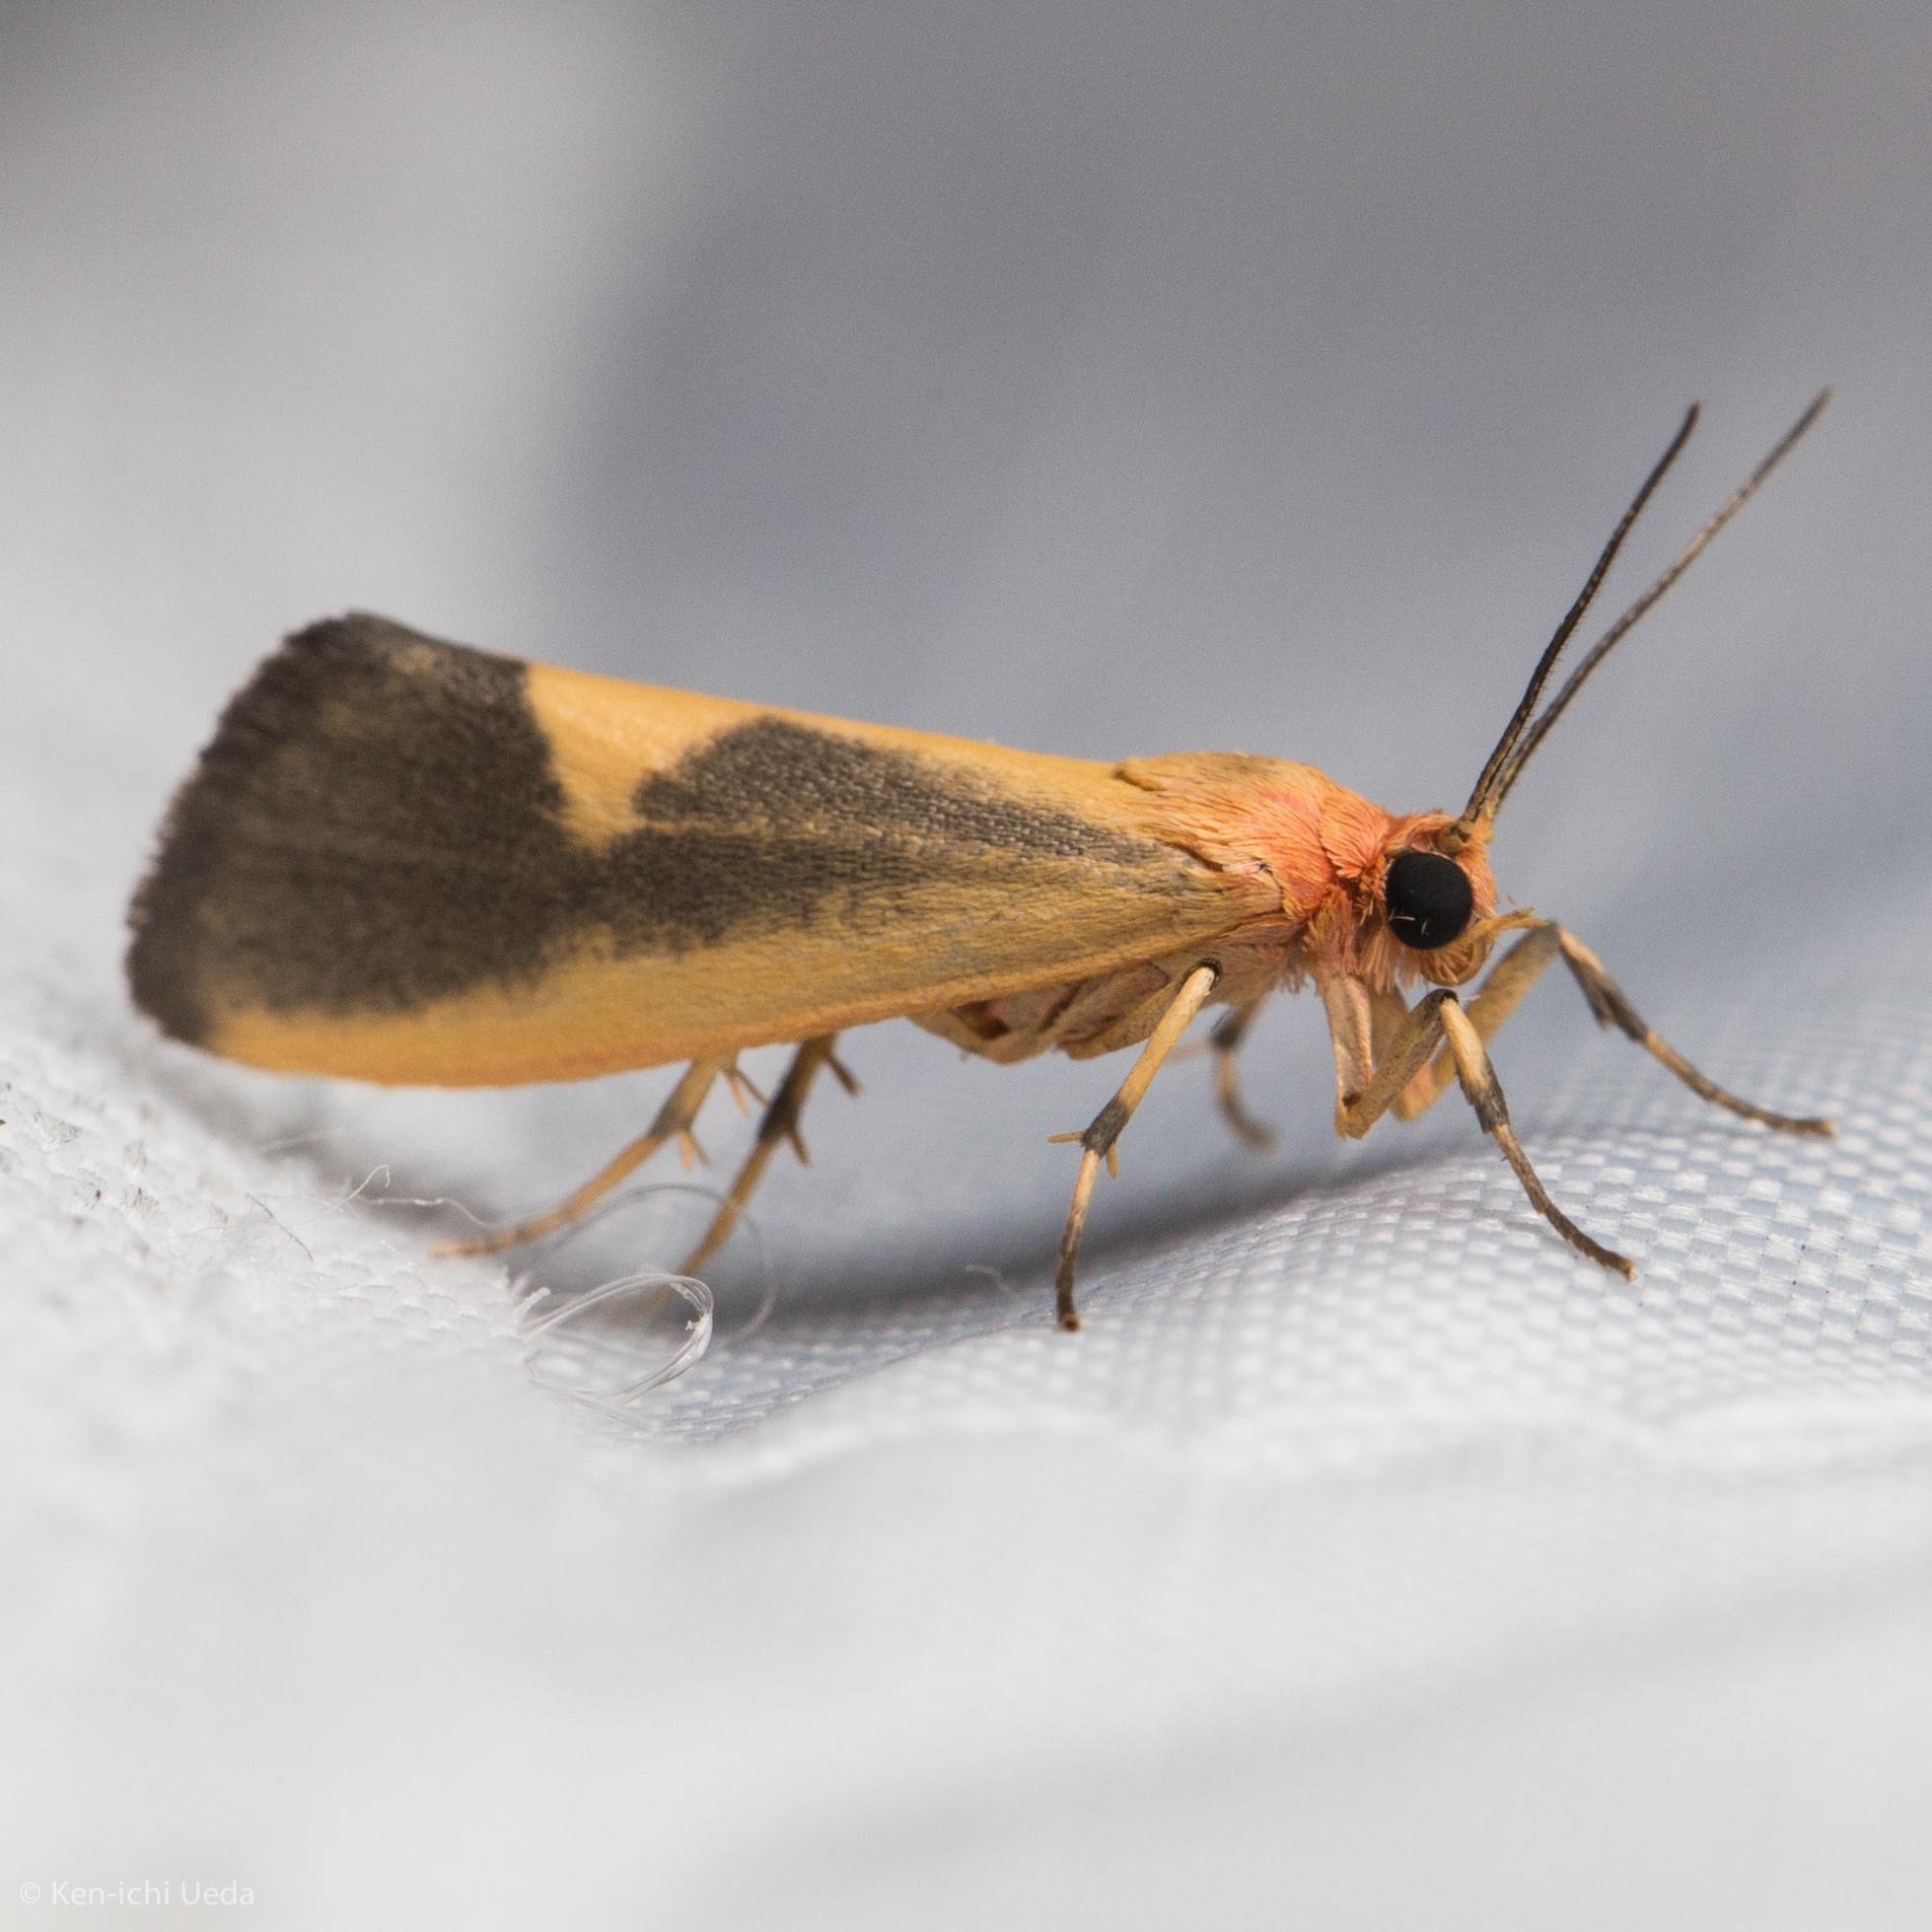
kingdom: Animalia
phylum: Arthropoda
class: Insecta
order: Lepidoptera
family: Erebidae
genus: Cisthene
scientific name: Cisthene plumbea
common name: Lead colored lichen moth
